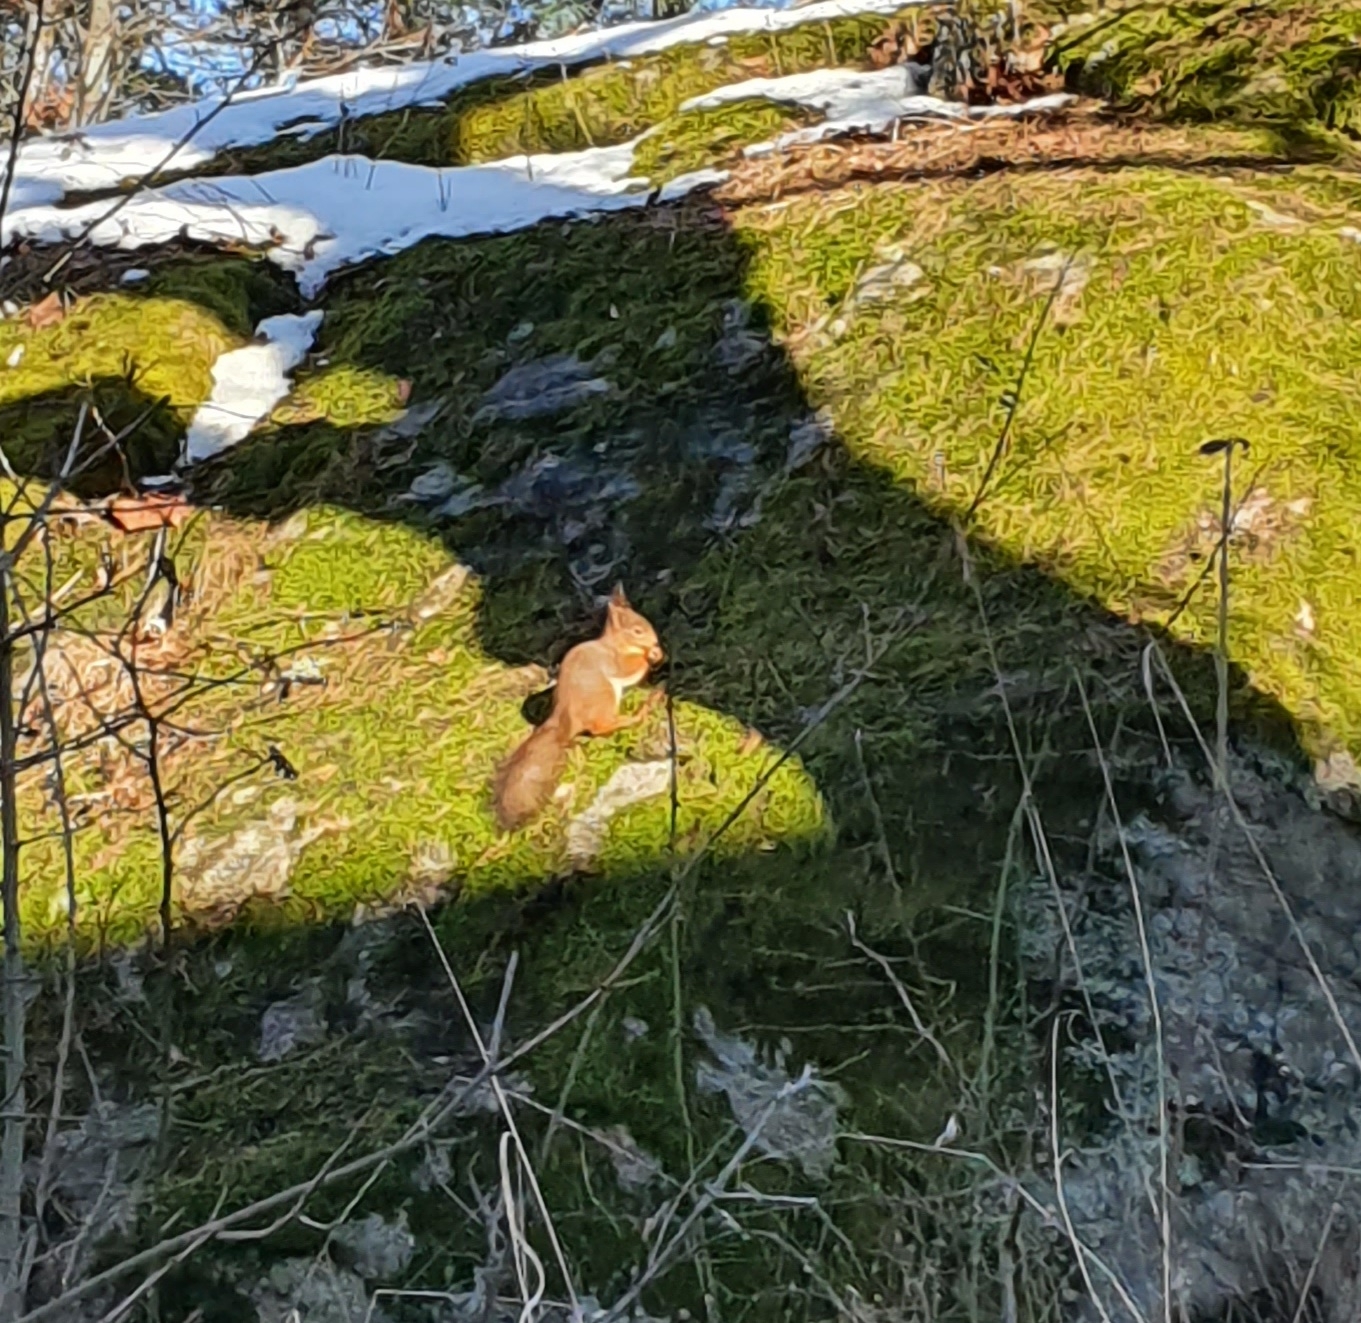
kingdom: Animalia
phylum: Chordata
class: Mammalia
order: Rodentia
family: Sciuridae
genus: Sciurus
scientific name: Sciurus vulgaris
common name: Eurasian red squirrel
